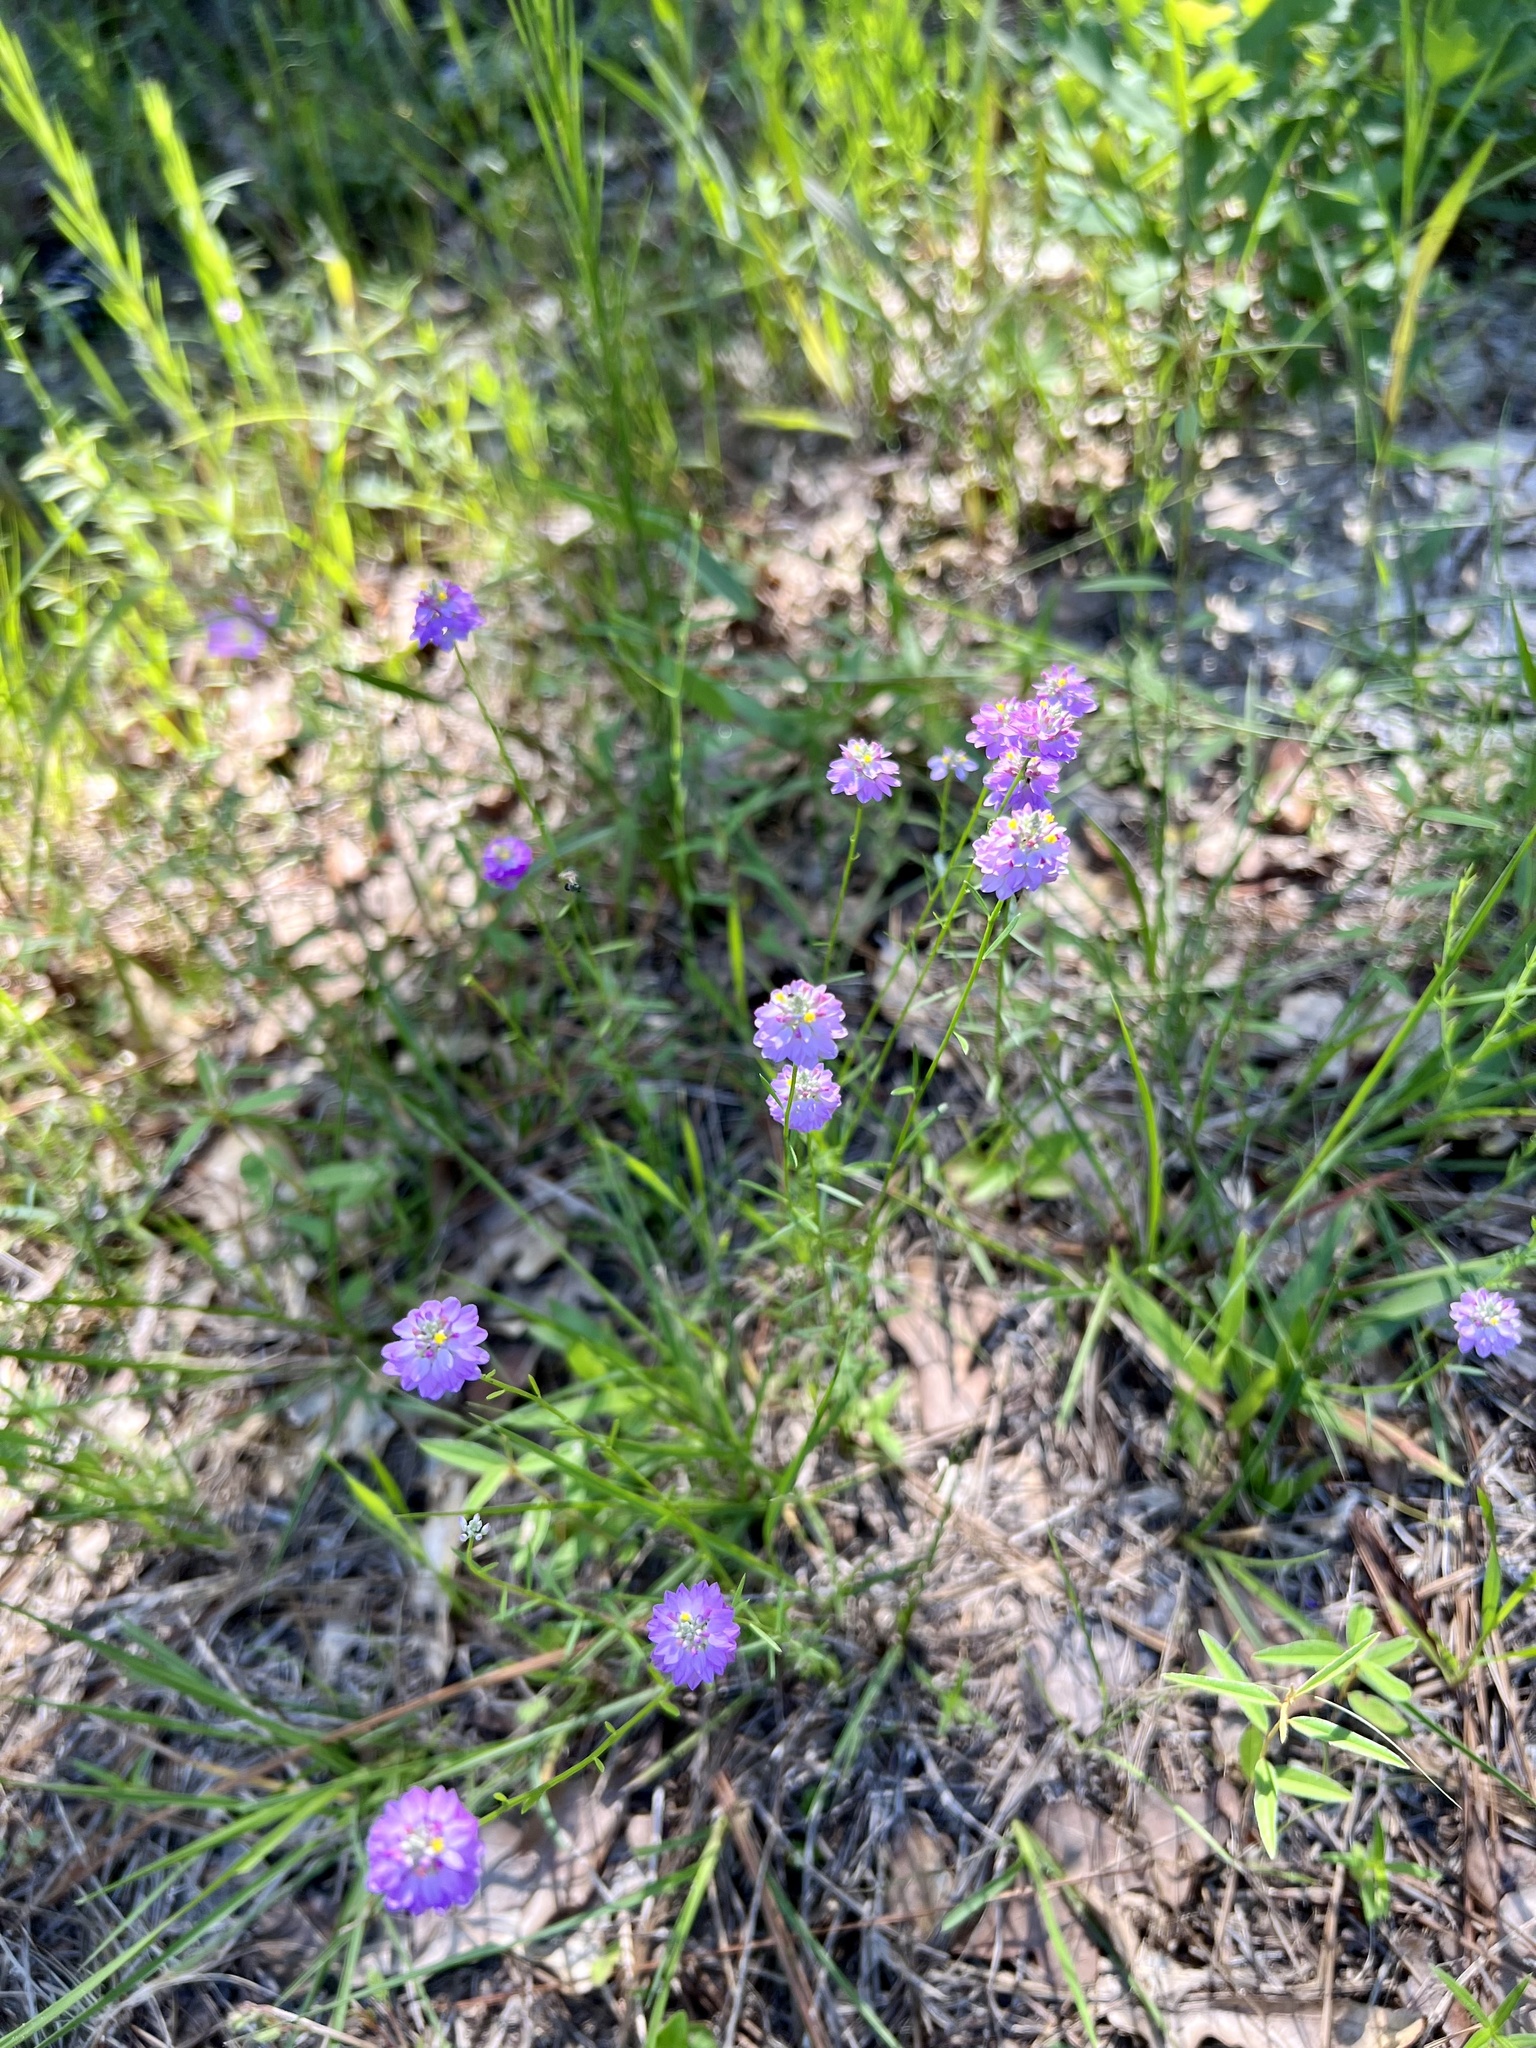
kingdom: Plantae
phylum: Tracheophyta
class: Magnoliopsida
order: Fabales
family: Polygalaceae
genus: Polygala
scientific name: Polygala mariana
